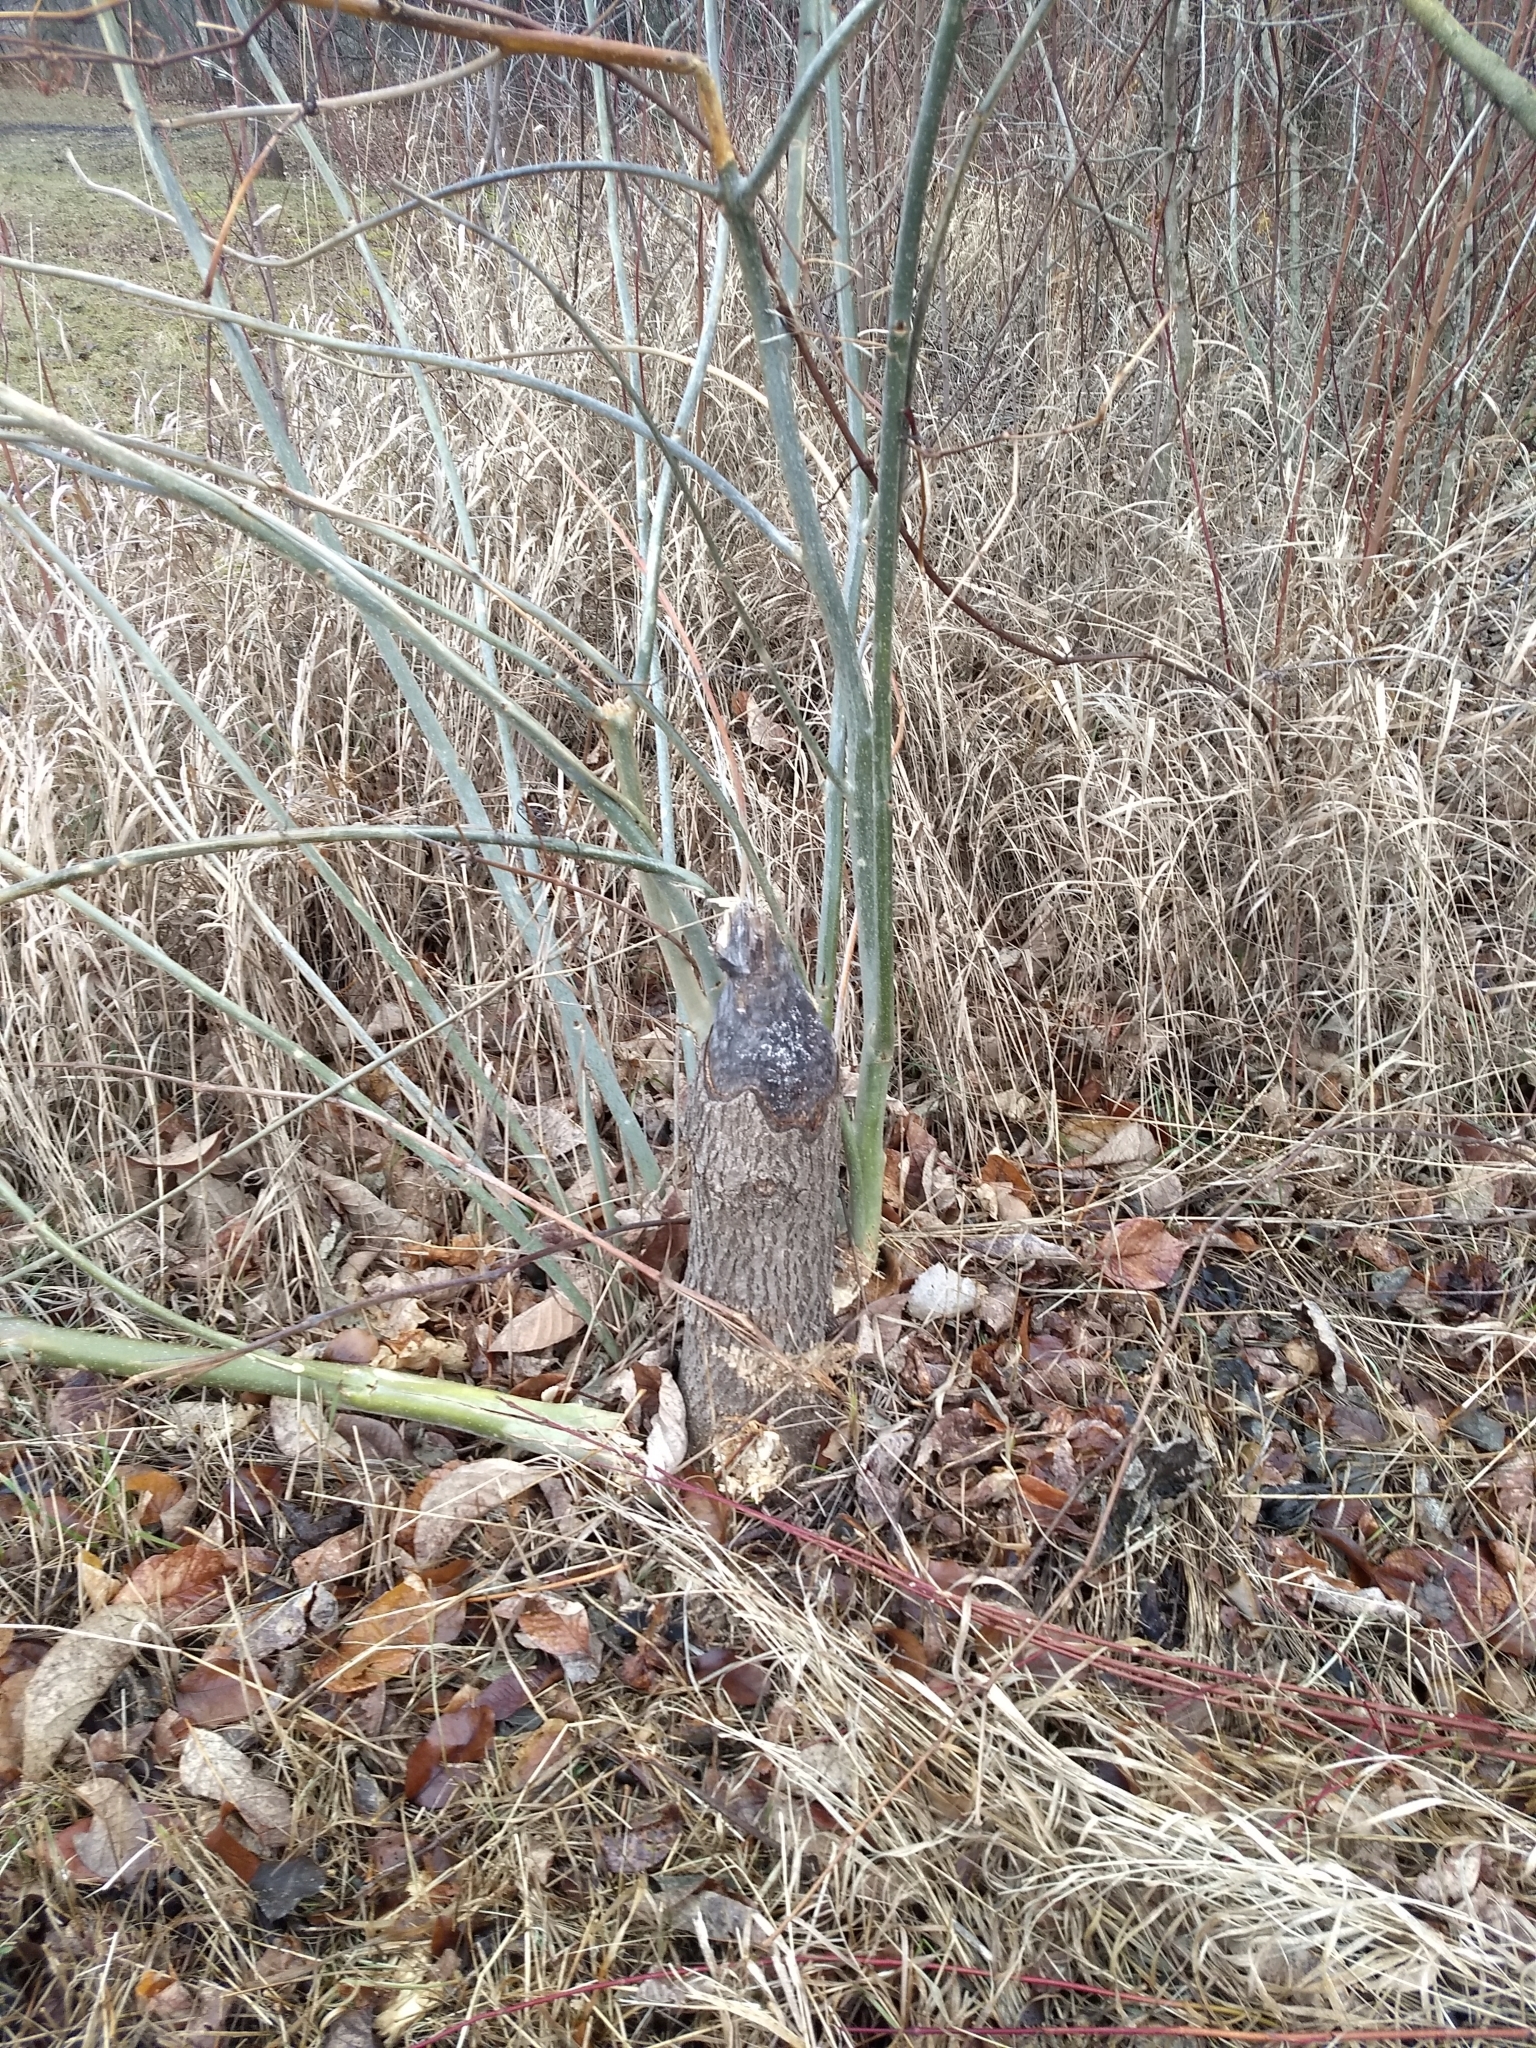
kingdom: Animalia
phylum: Chordata
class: Mammalia
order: Rodentia
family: Castoridae
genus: Castor
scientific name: Castor canadensis
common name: American beaver
